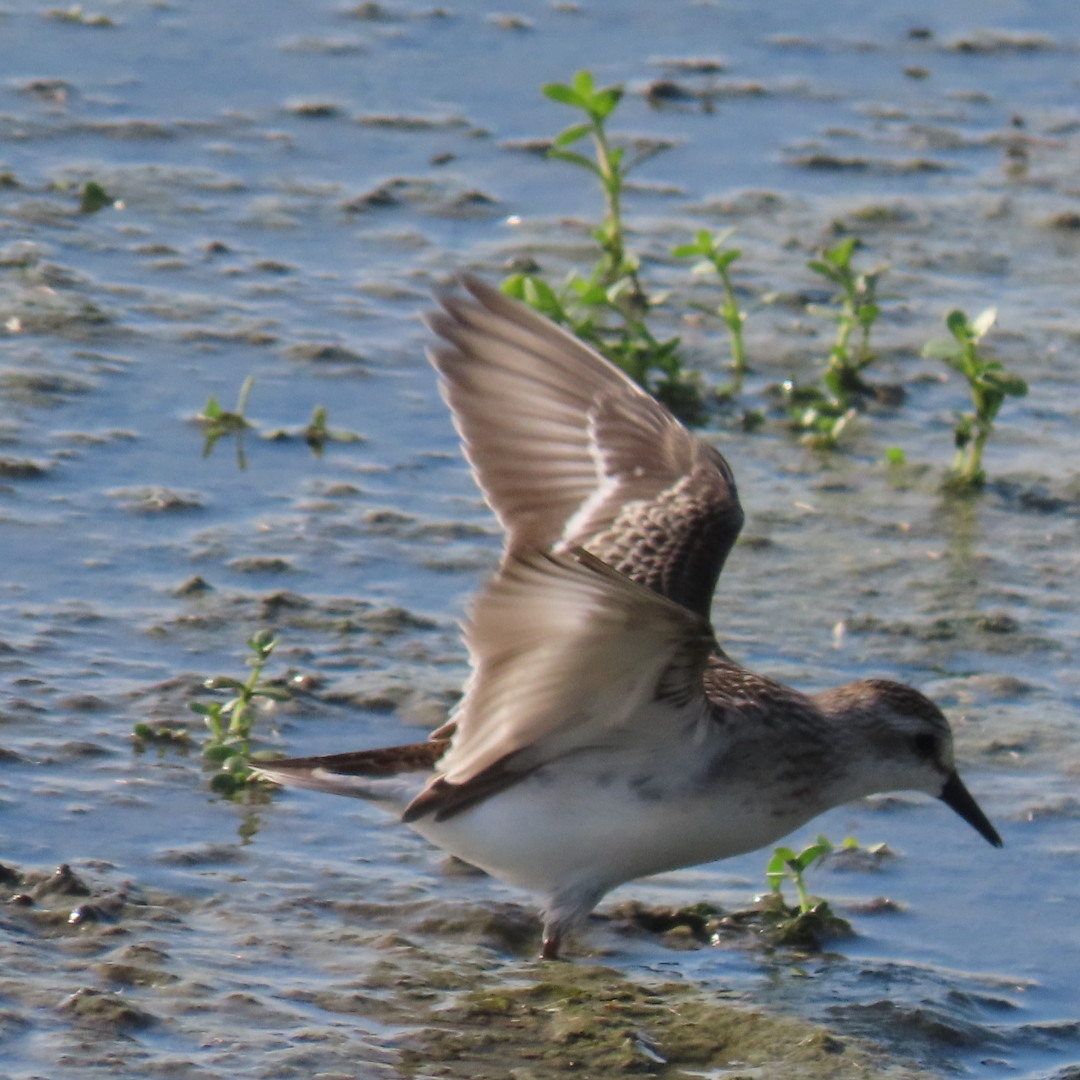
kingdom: Animalia
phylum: Chordata
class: Aves
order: Charadriiformes
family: Scolopacidae
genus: Calidris
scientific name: Calidris pusilla
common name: Semipalmated sandpiper
